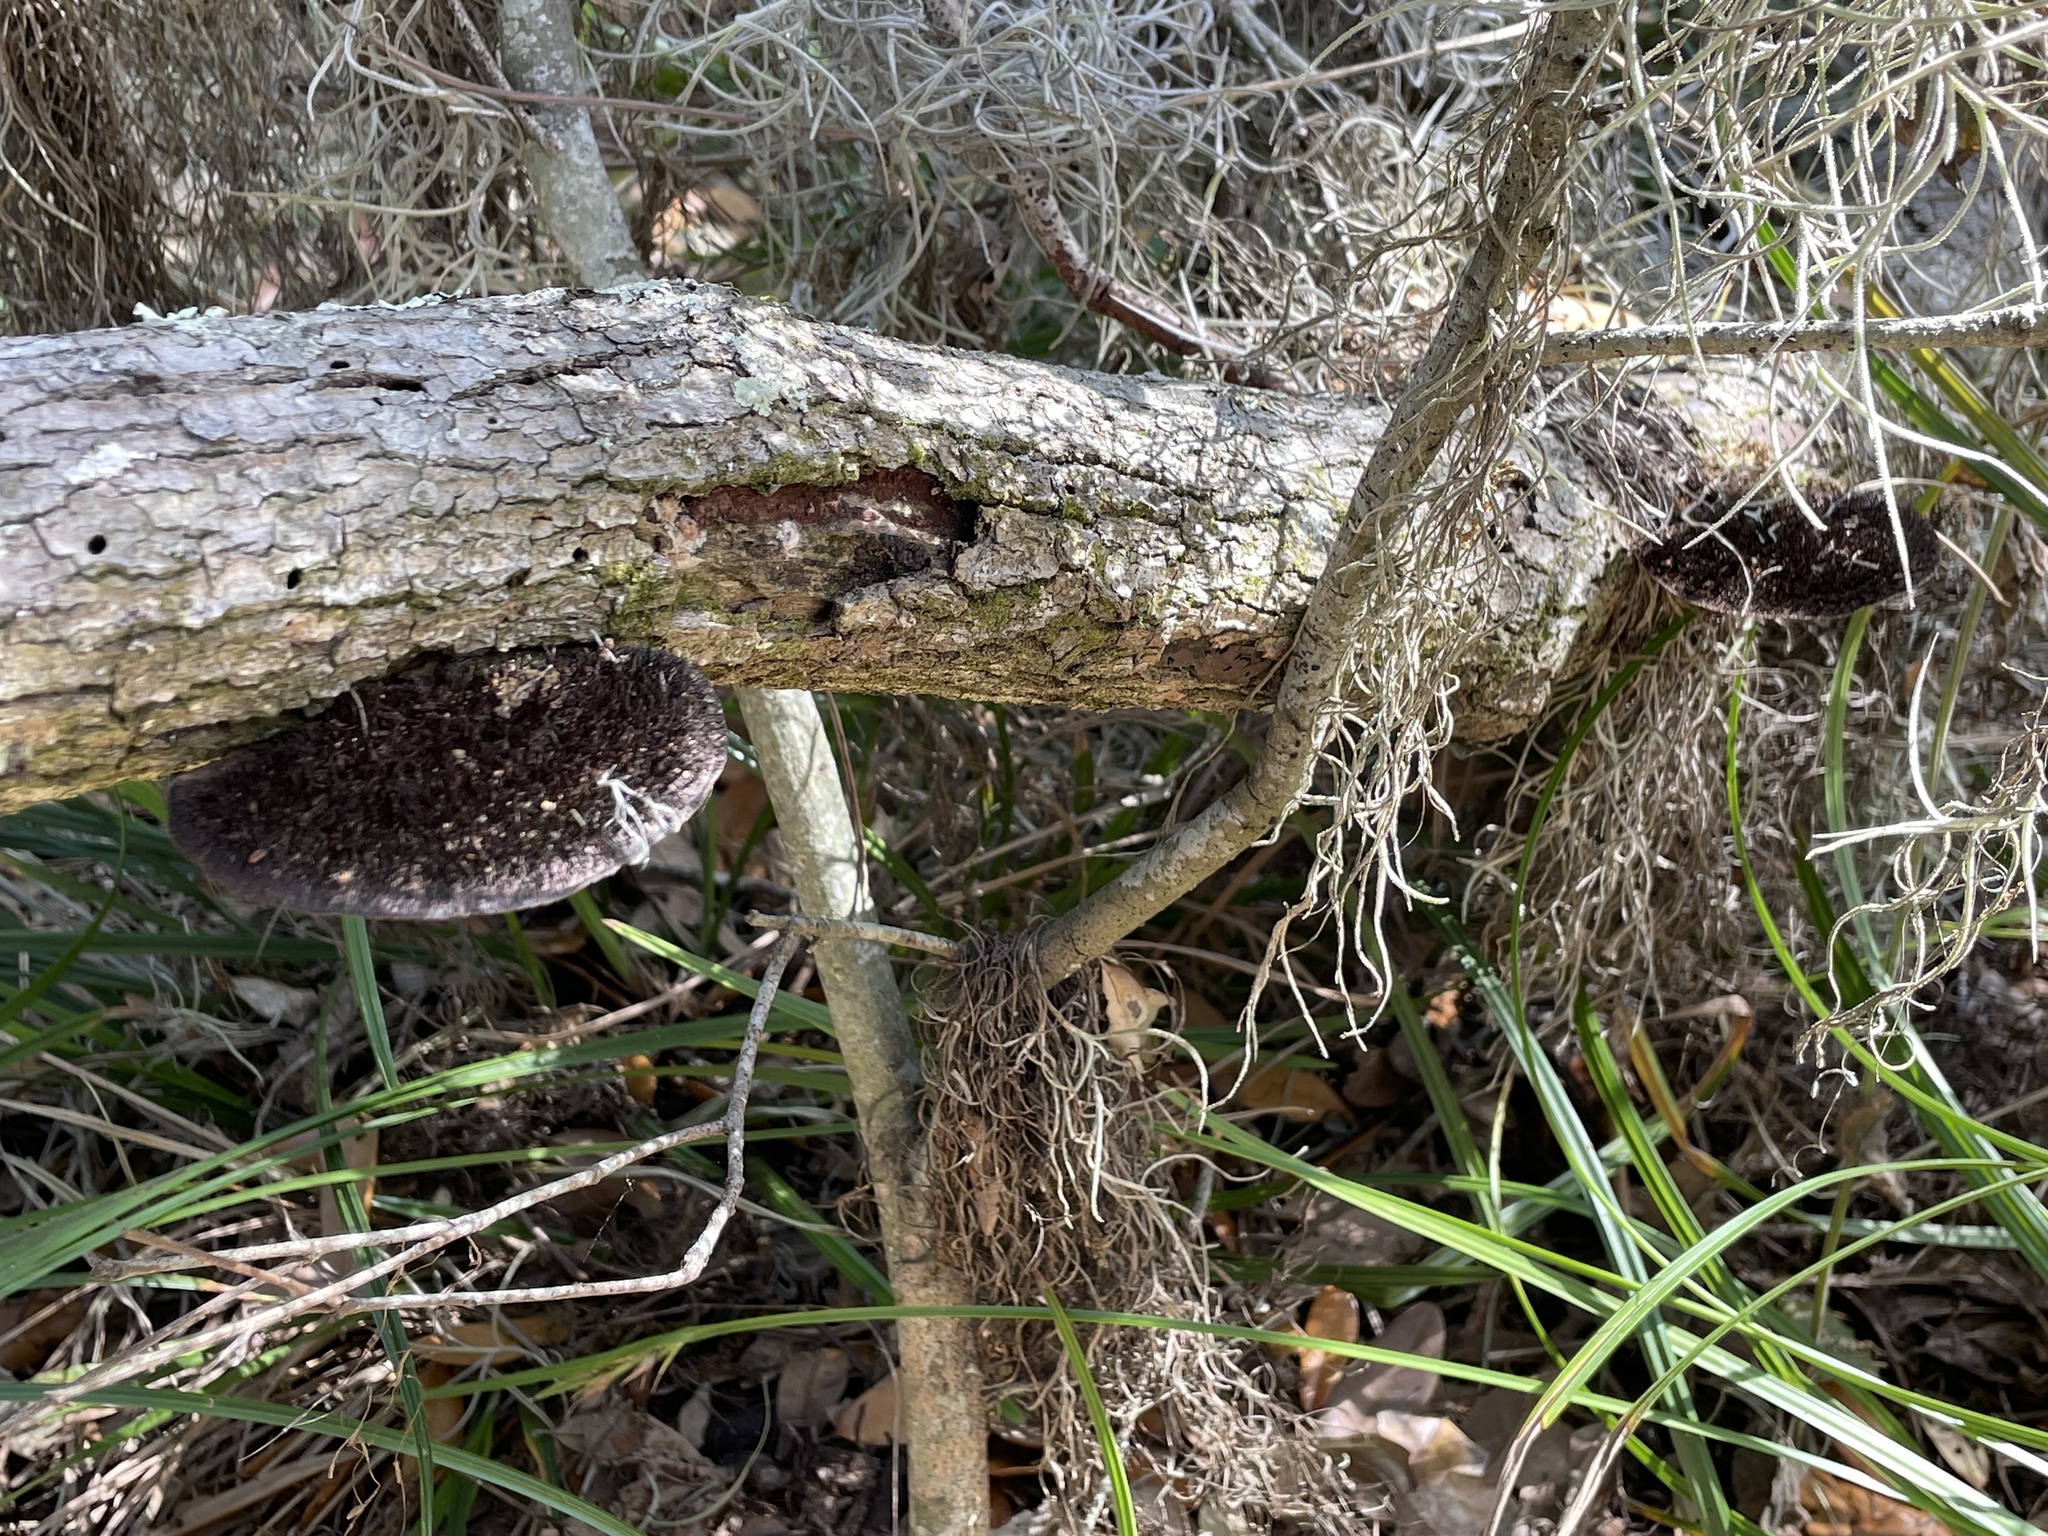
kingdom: Fungi
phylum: Basidiomycota
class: Agaricomycetes
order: Polyporales
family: Cerrenaceae
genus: Cerrena
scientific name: Cerrena hydnoides
